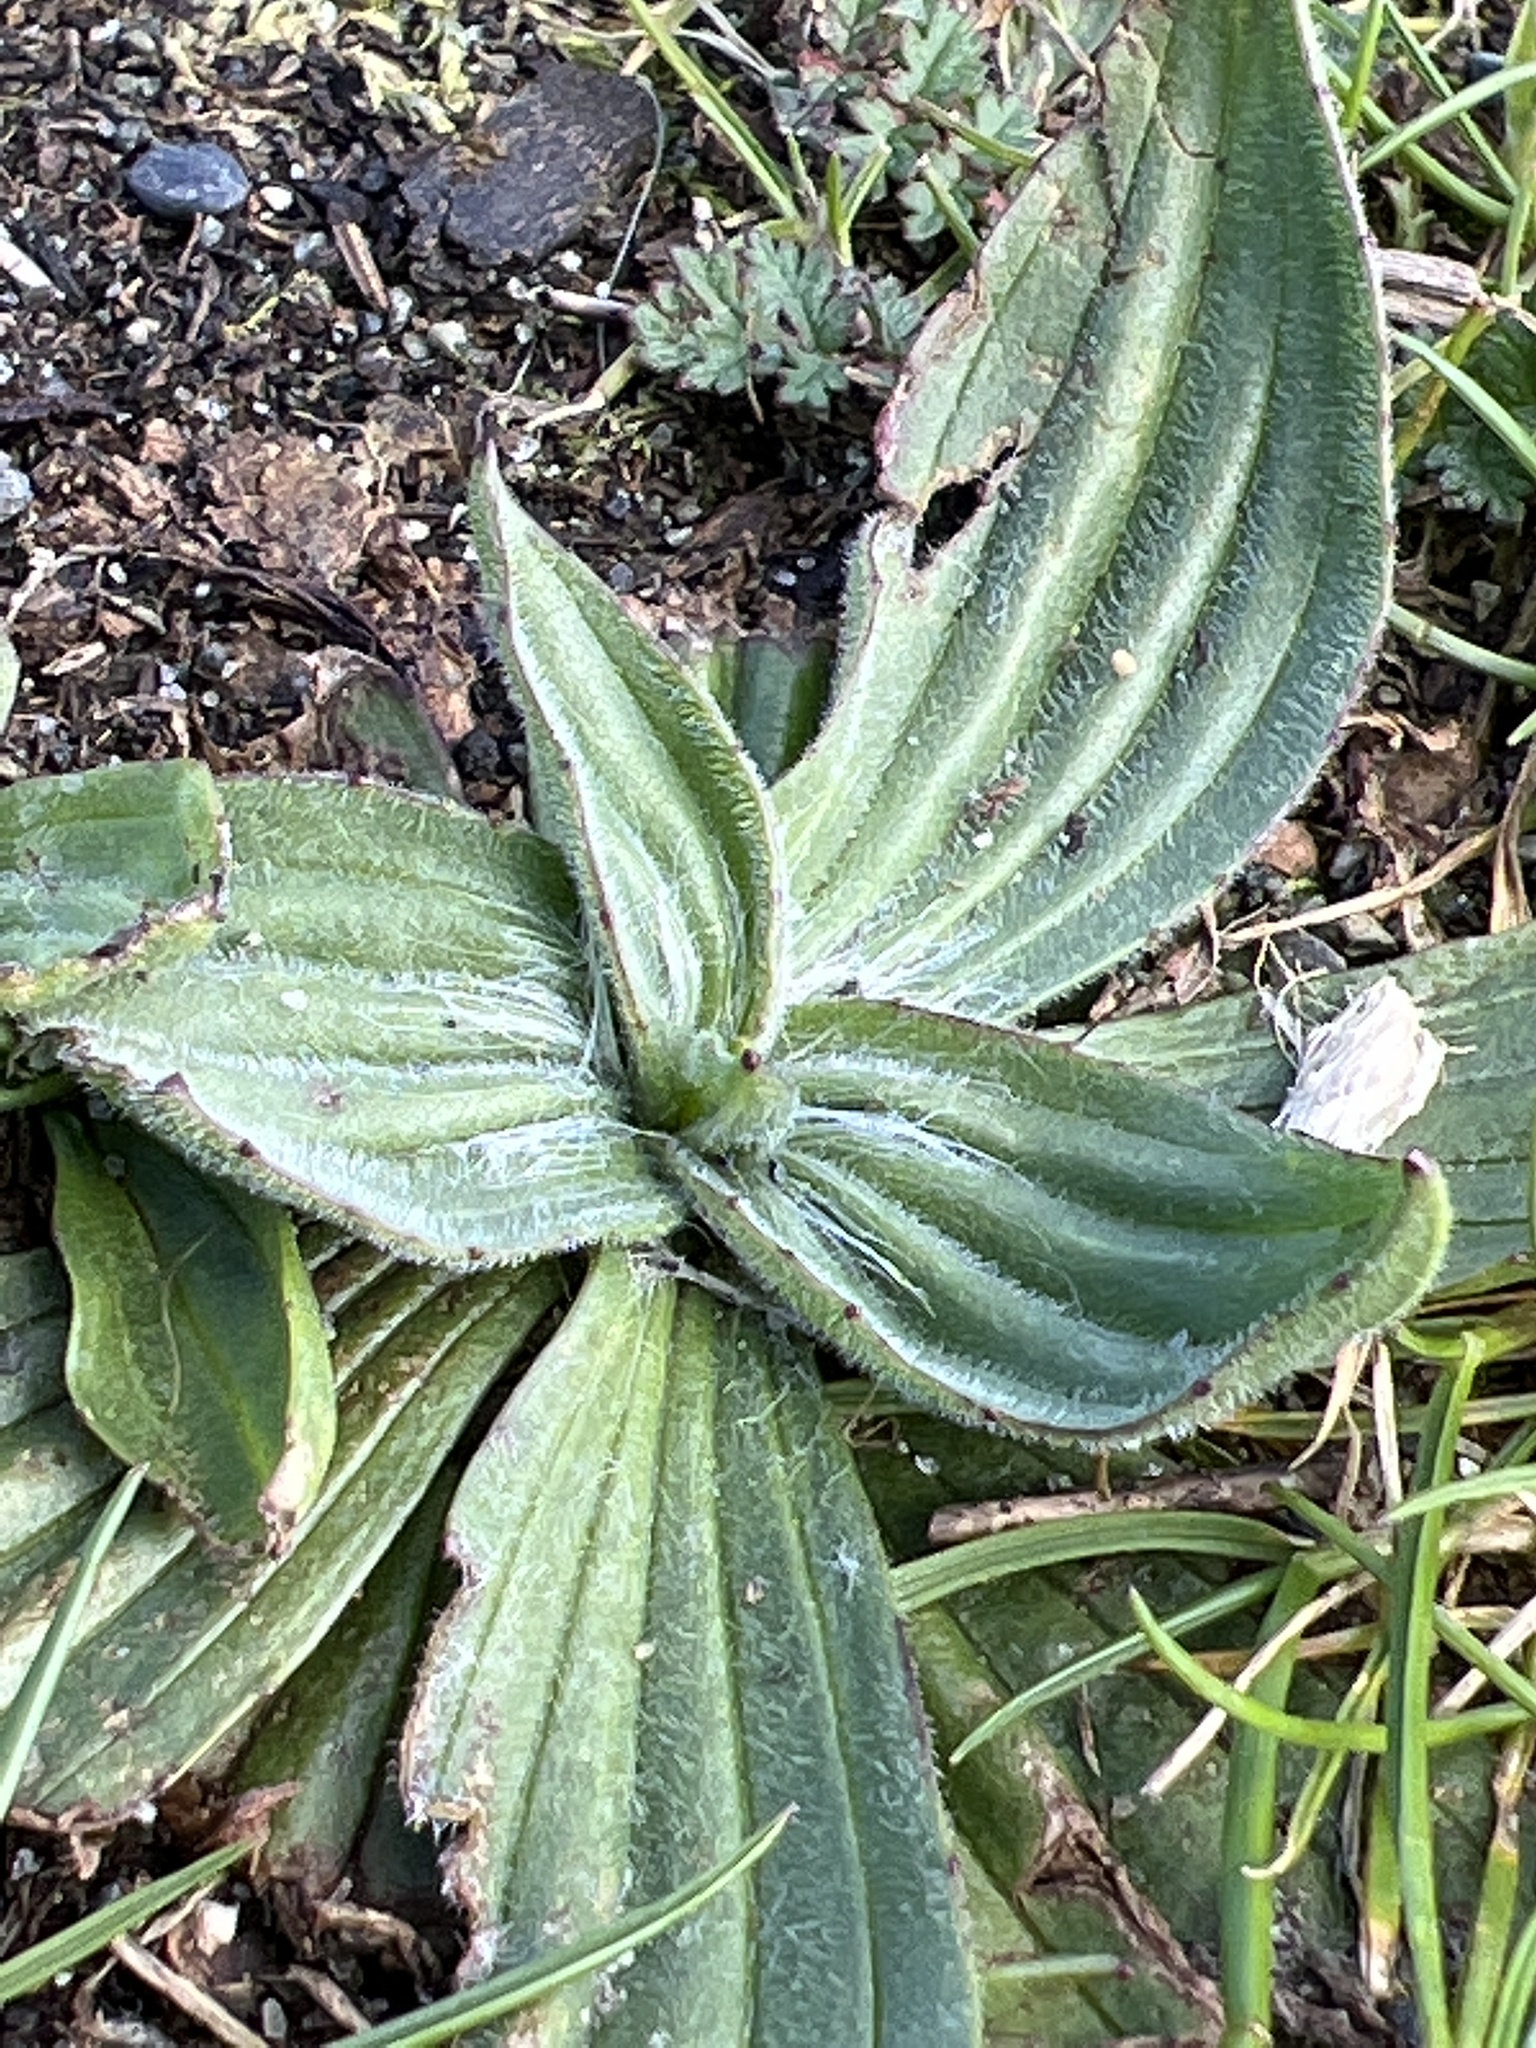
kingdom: Plantae
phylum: Tracheophyta
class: Magnoliopsida
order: Lamiales
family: Plantaginaceae
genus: Plantago
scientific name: Plantago lanceolata
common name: Ribwort plantain
